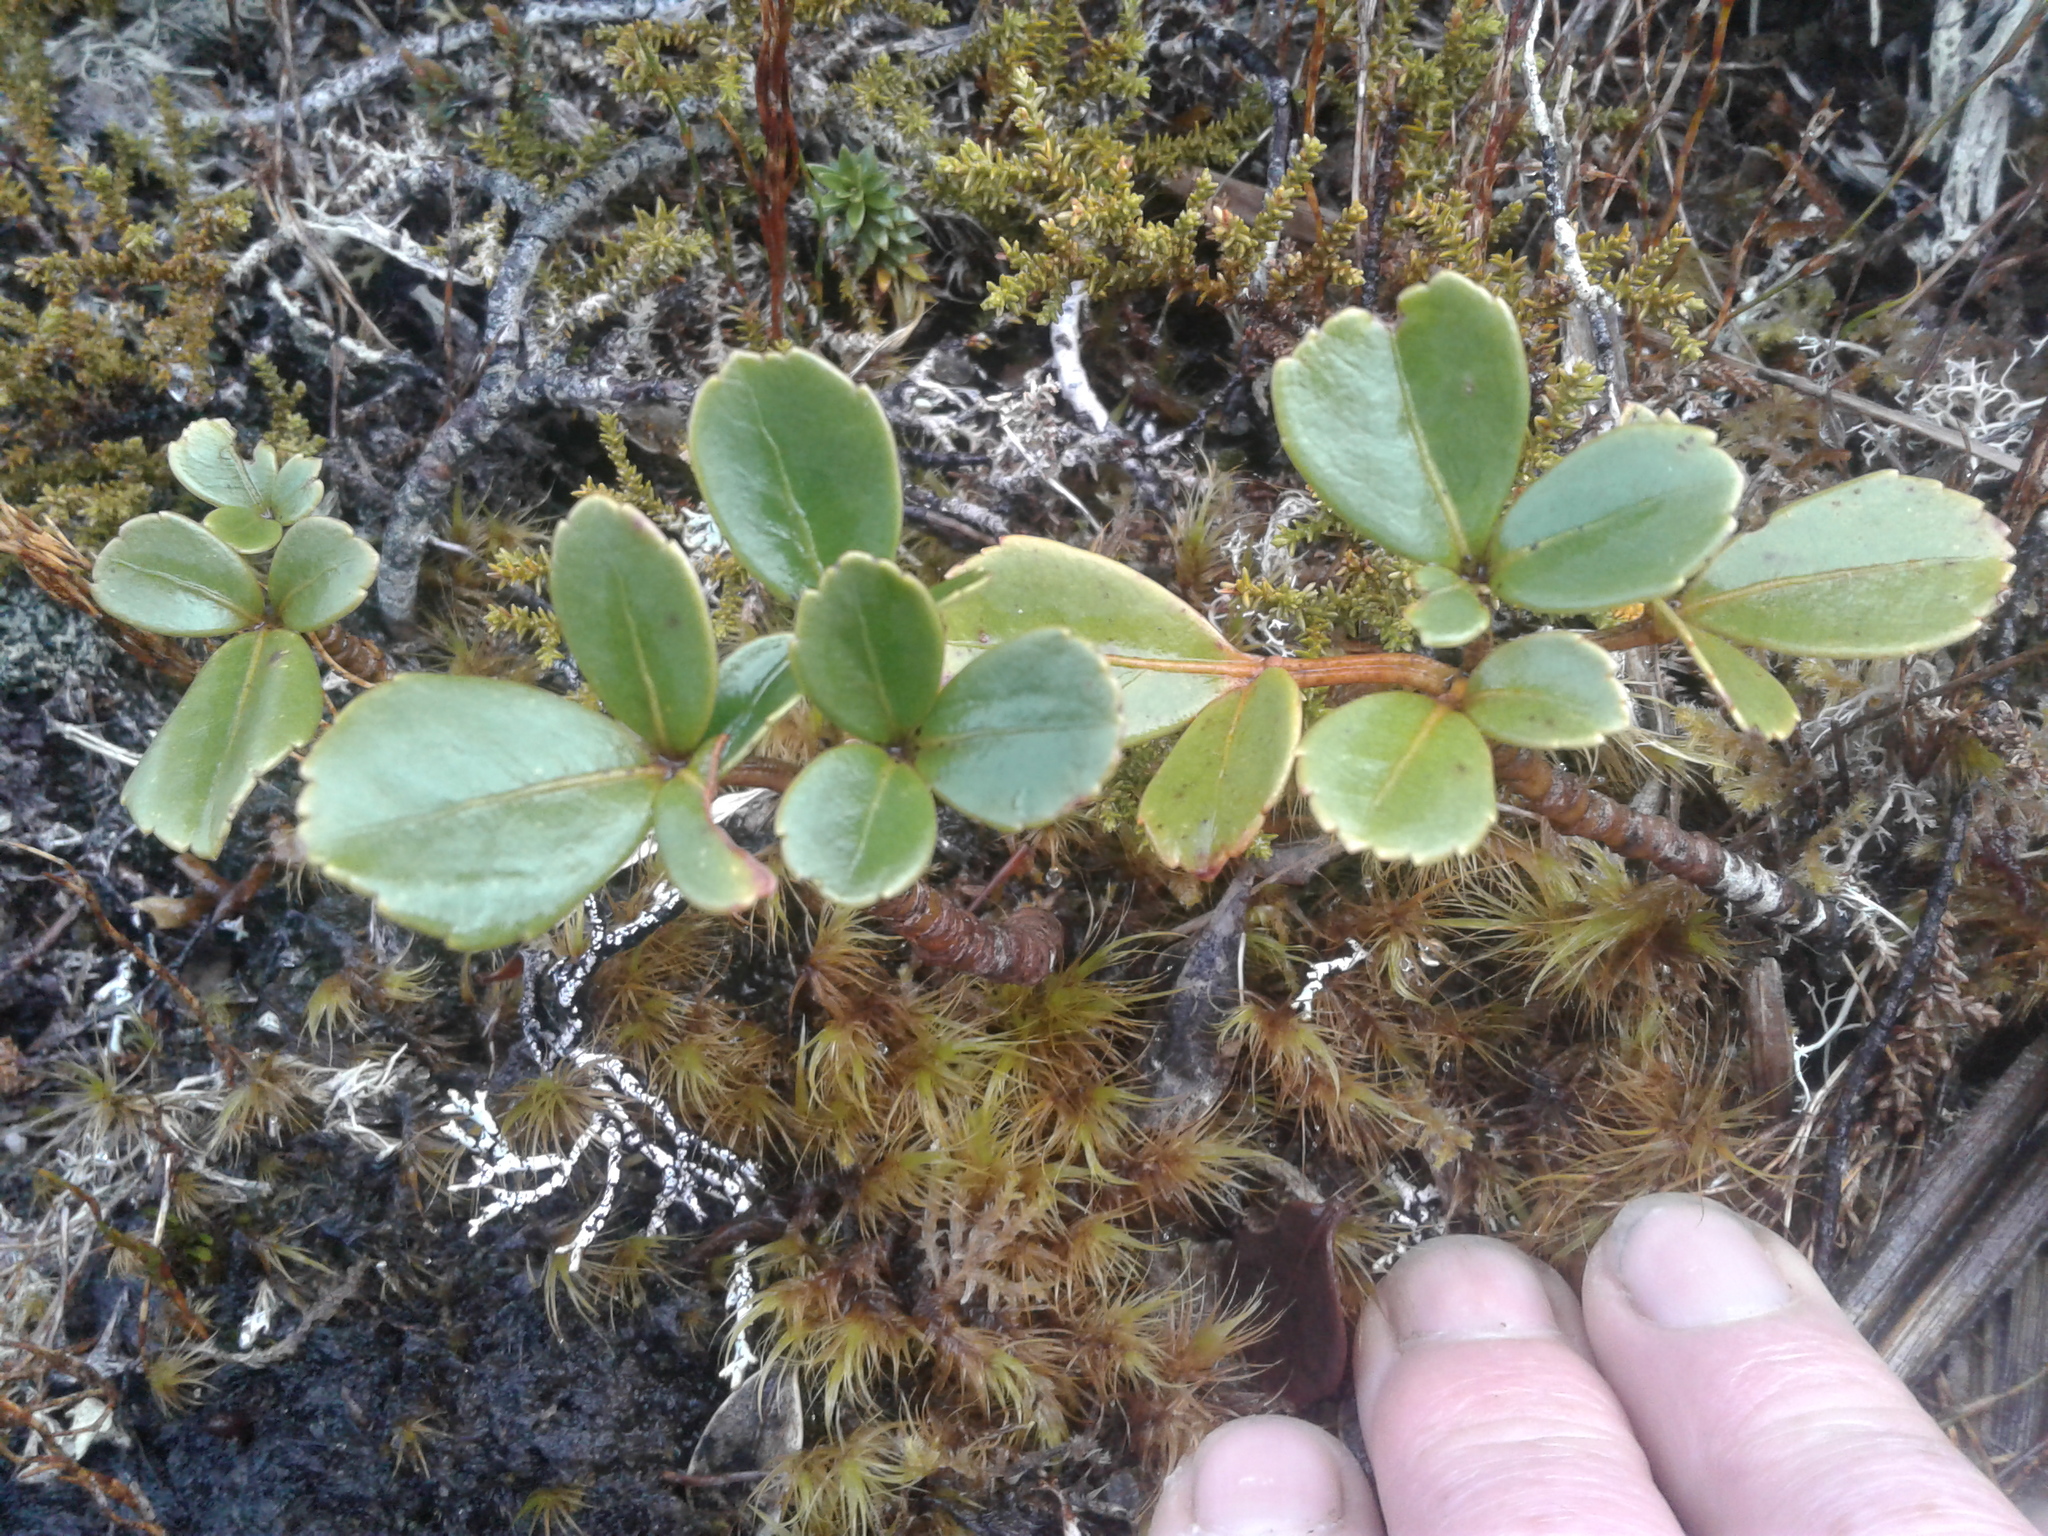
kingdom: Plantae
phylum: Tracheophyta
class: Magnoliopsida
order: Apiales
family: Araliaceae
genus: Neopanax
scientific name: Neopanax colensoi
